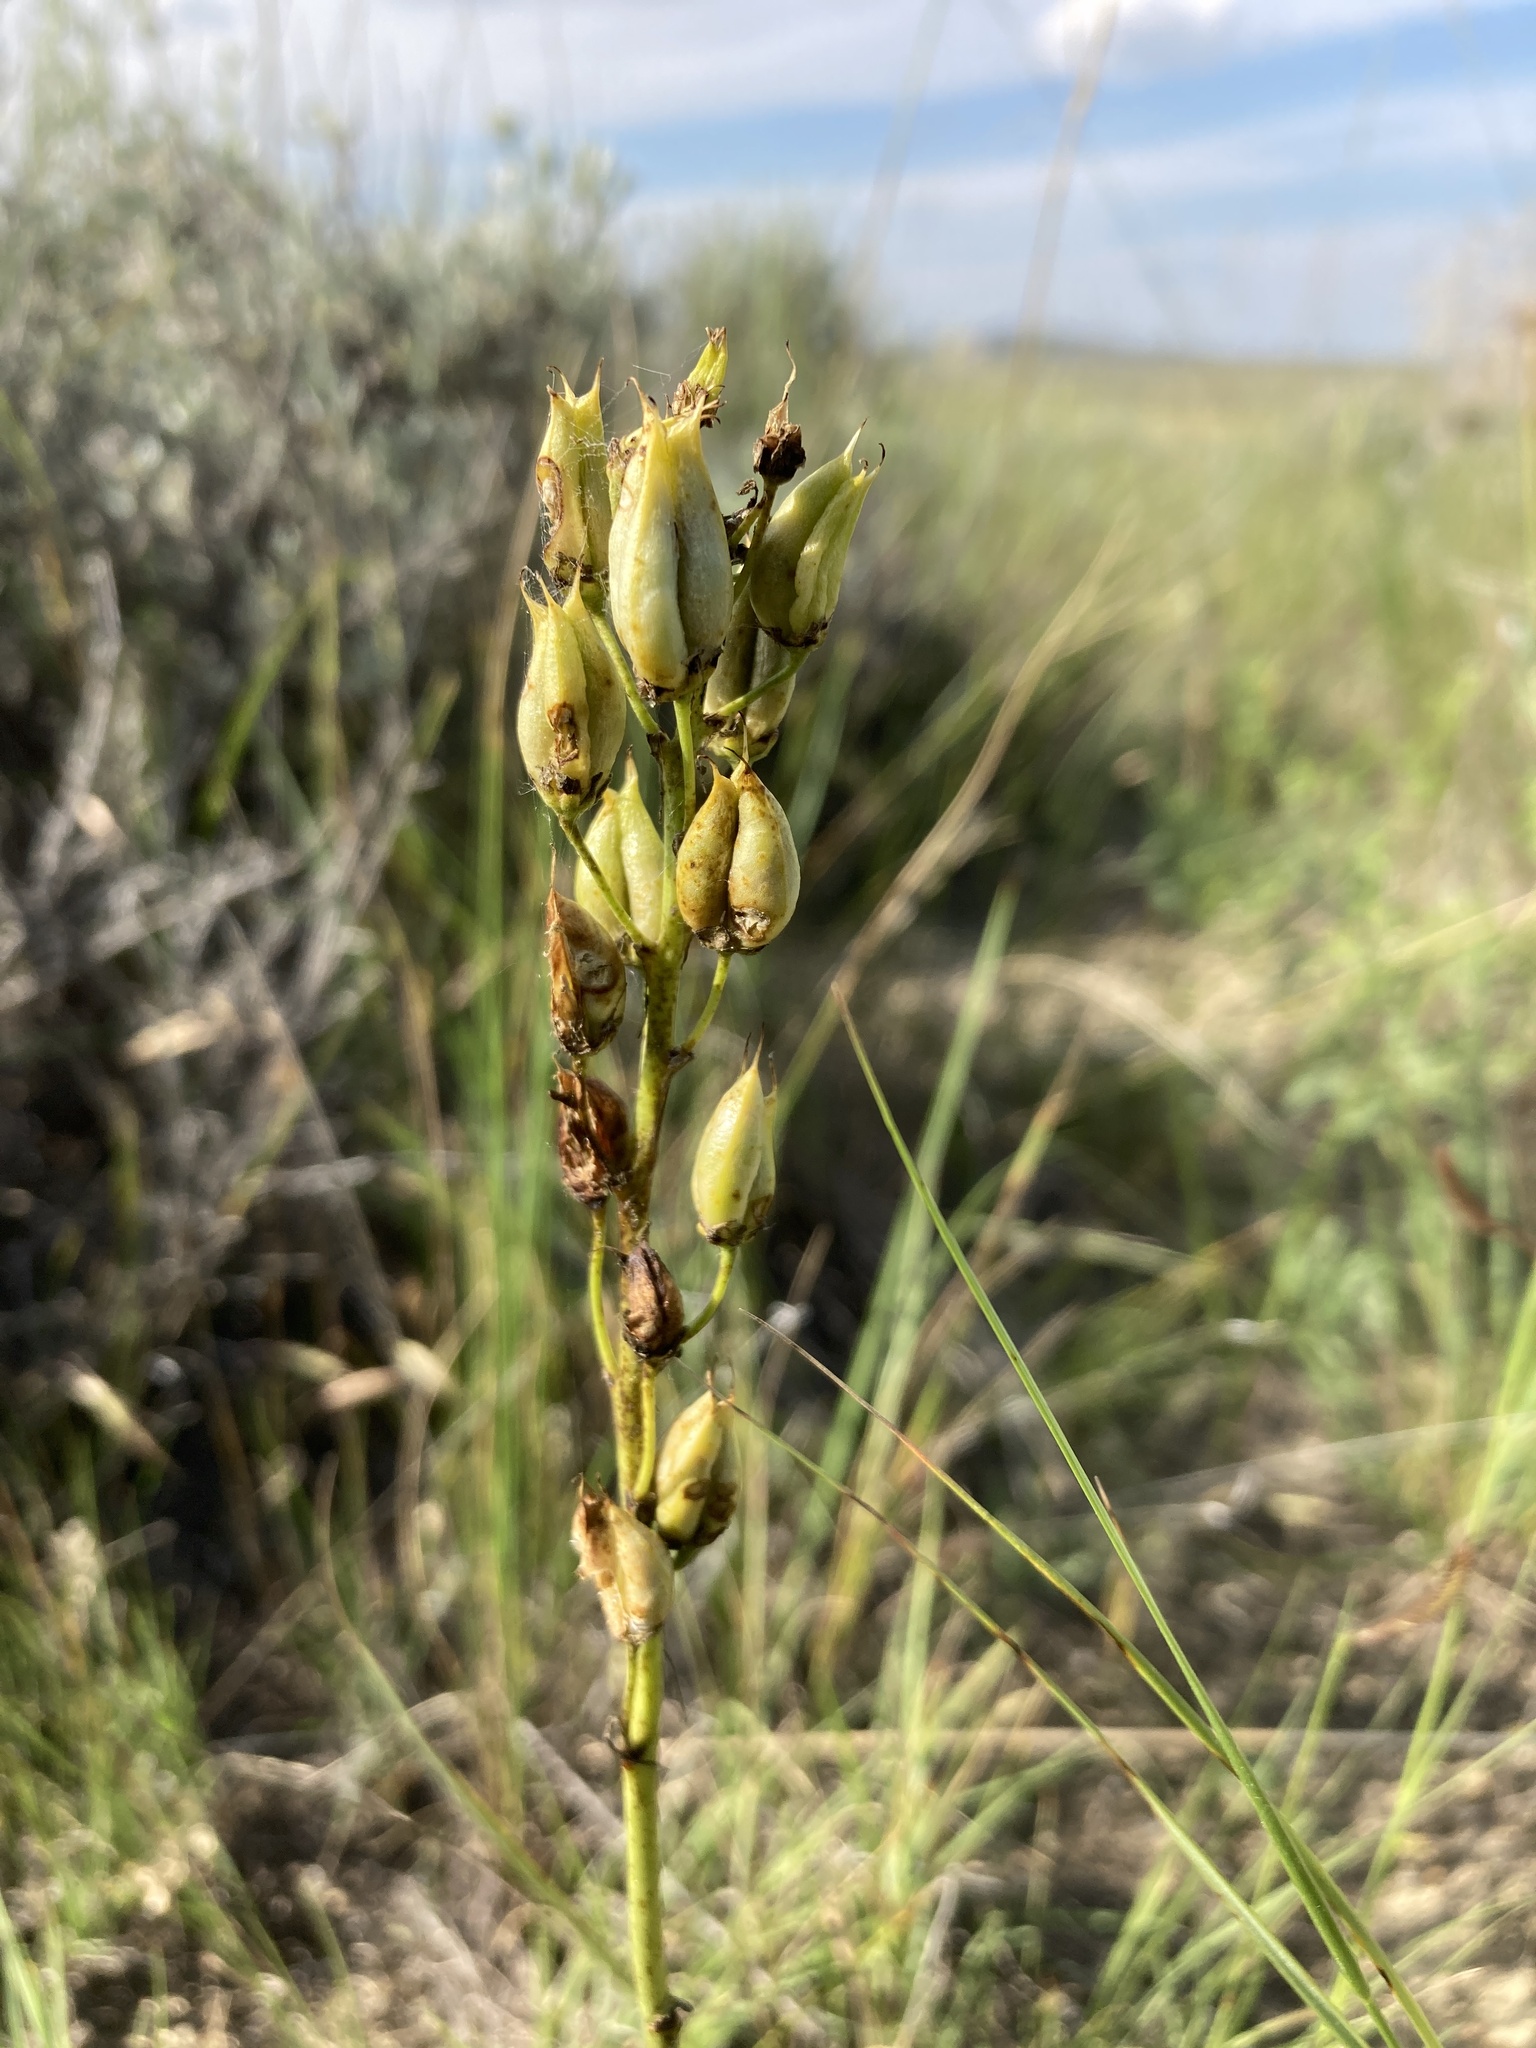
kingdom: Plantae
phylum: Tracheophyta
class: Liliopsida
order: Liliales
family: Melanthiaceae
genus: Toxicoscordion
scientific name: Toxicoscordion venenosum
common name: Meadow death camas
